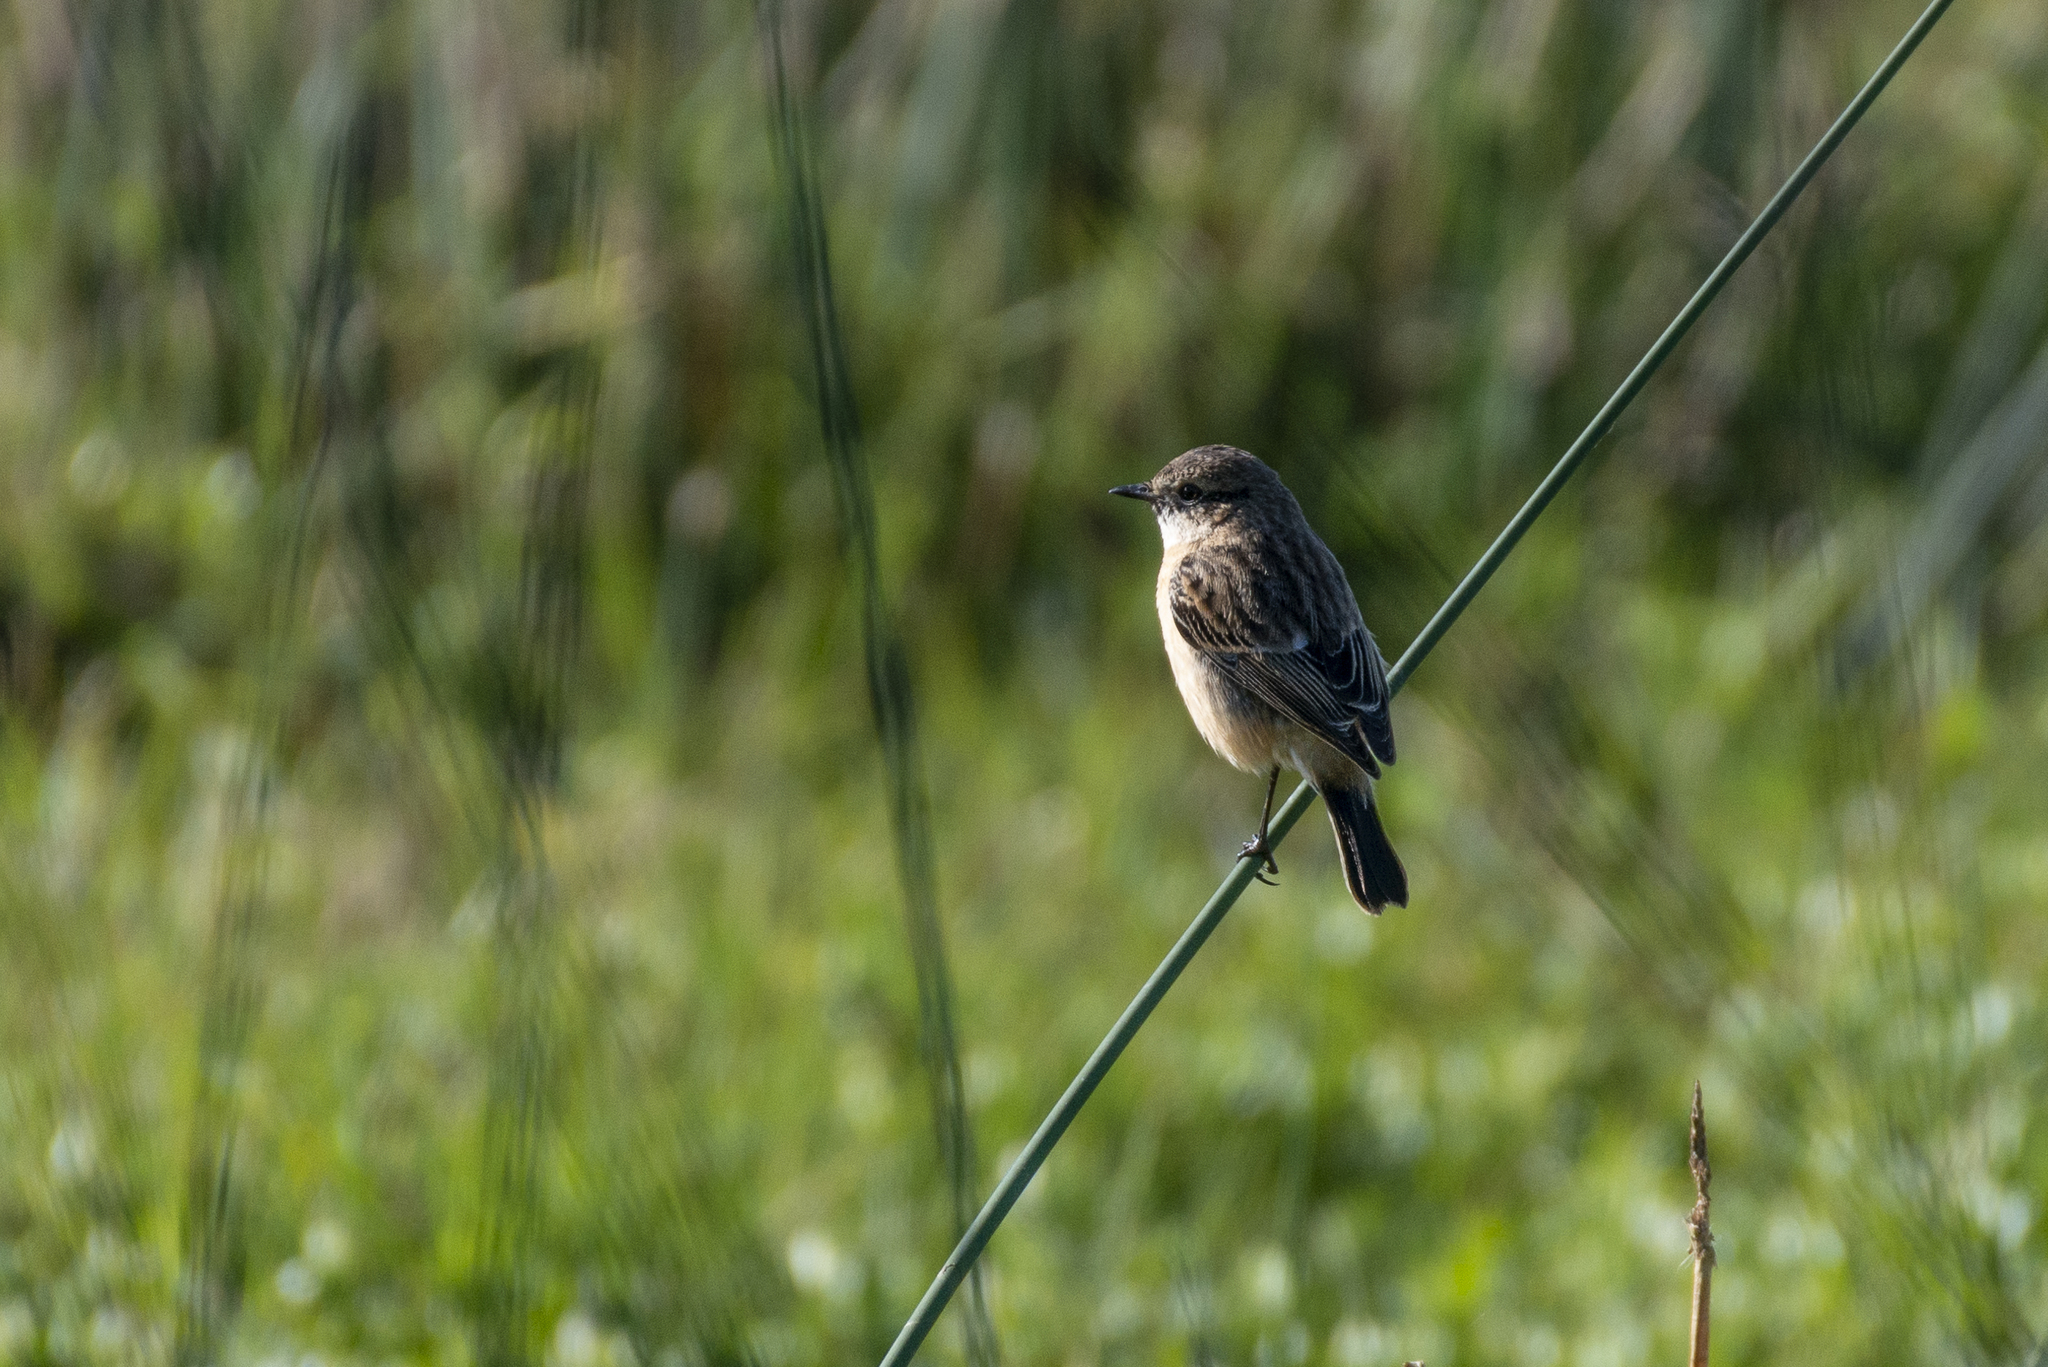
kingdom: Animalia
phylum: Chordata
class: Aves
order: Passeriformes
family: Muscicapidae
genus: Saxicola
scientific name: Saxicola stejnegeri
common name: Stejneger's stonechat
